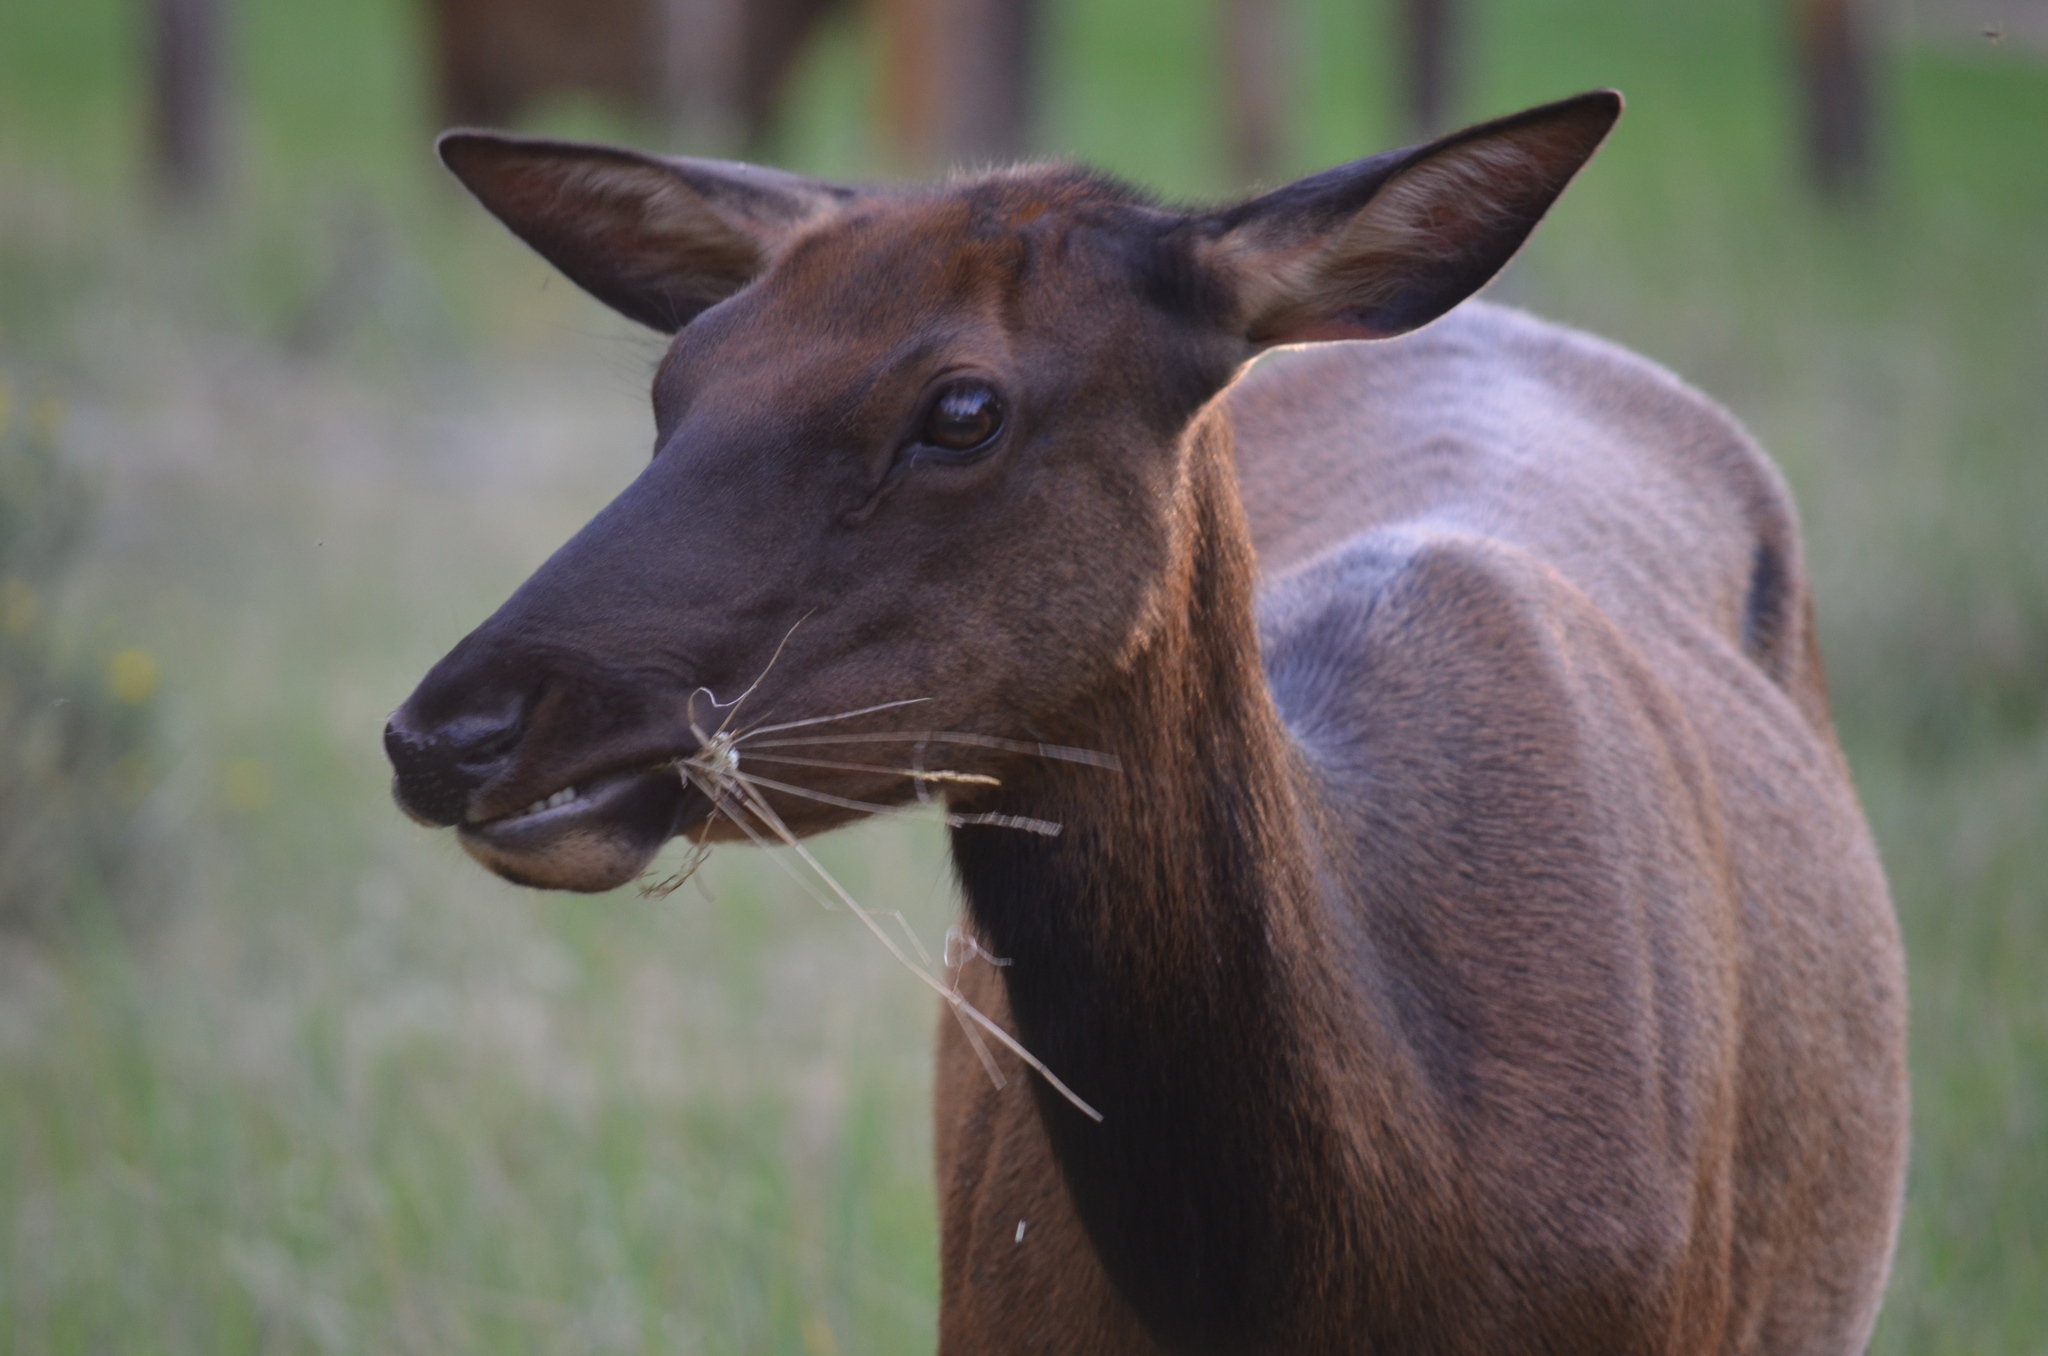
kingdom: Animalia
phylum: Chordata
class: Mammalia
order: Artiodactyla
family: Cervidae
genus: Cervus
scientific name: Cervus elaphus
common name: Red deer
